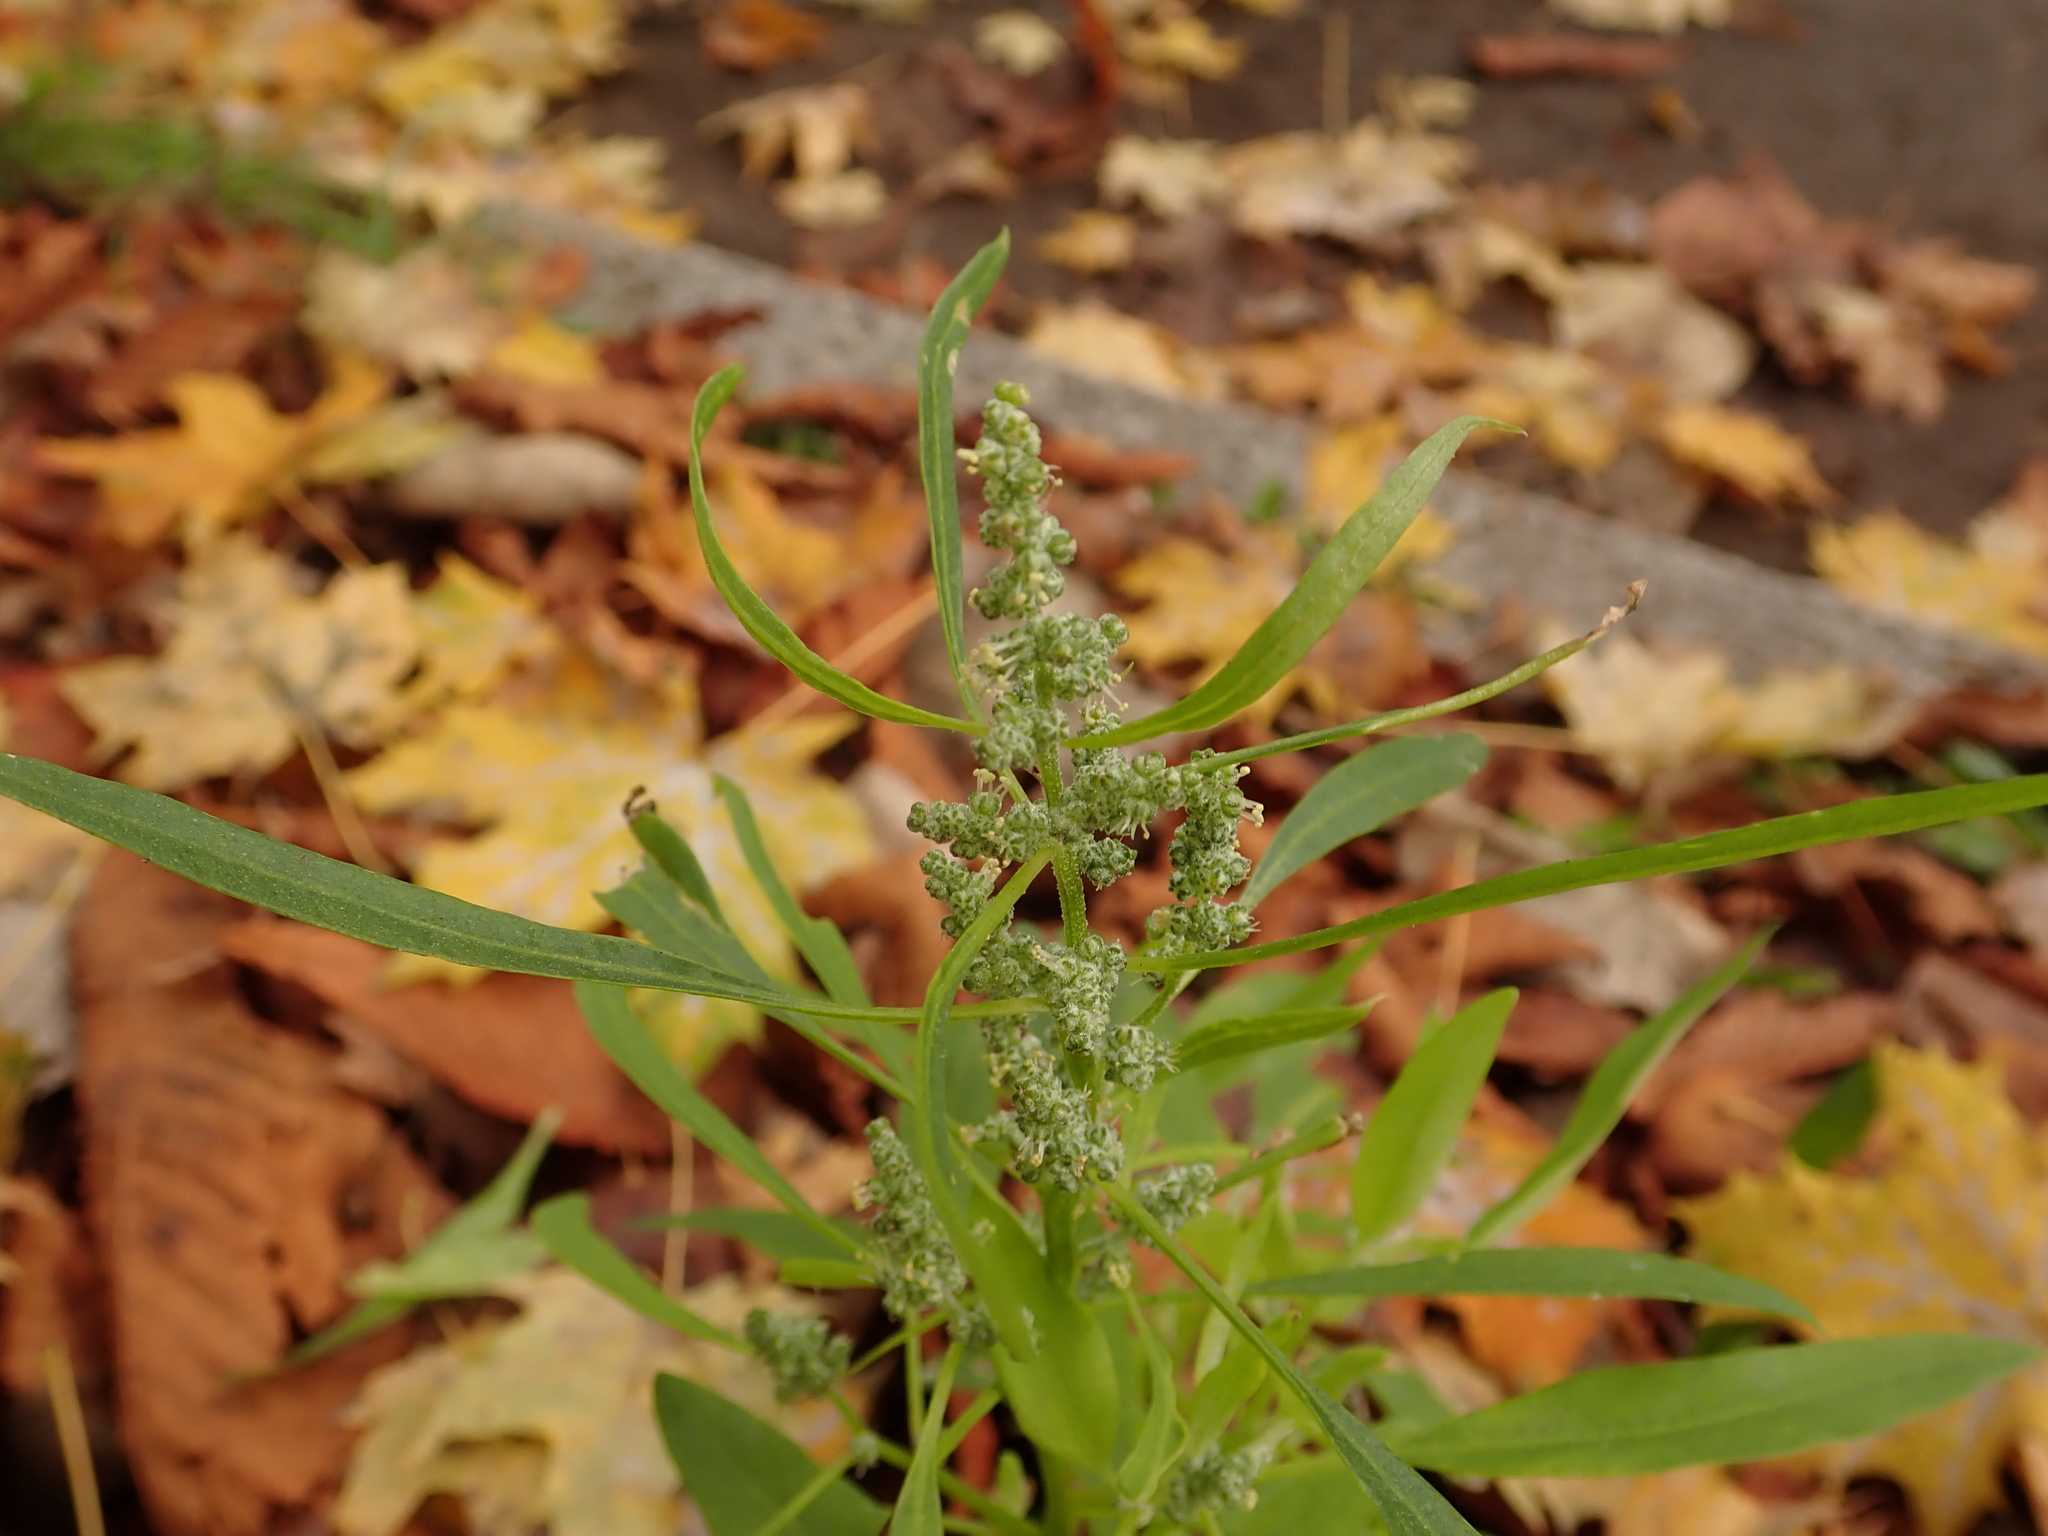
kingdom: Plantae
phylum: Tracheophyta
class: Magnoliopsida
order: Caryophyllales
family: Amaranthaceae
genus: Chenopodium
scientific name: Chenopodium album
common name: Fat-hen
